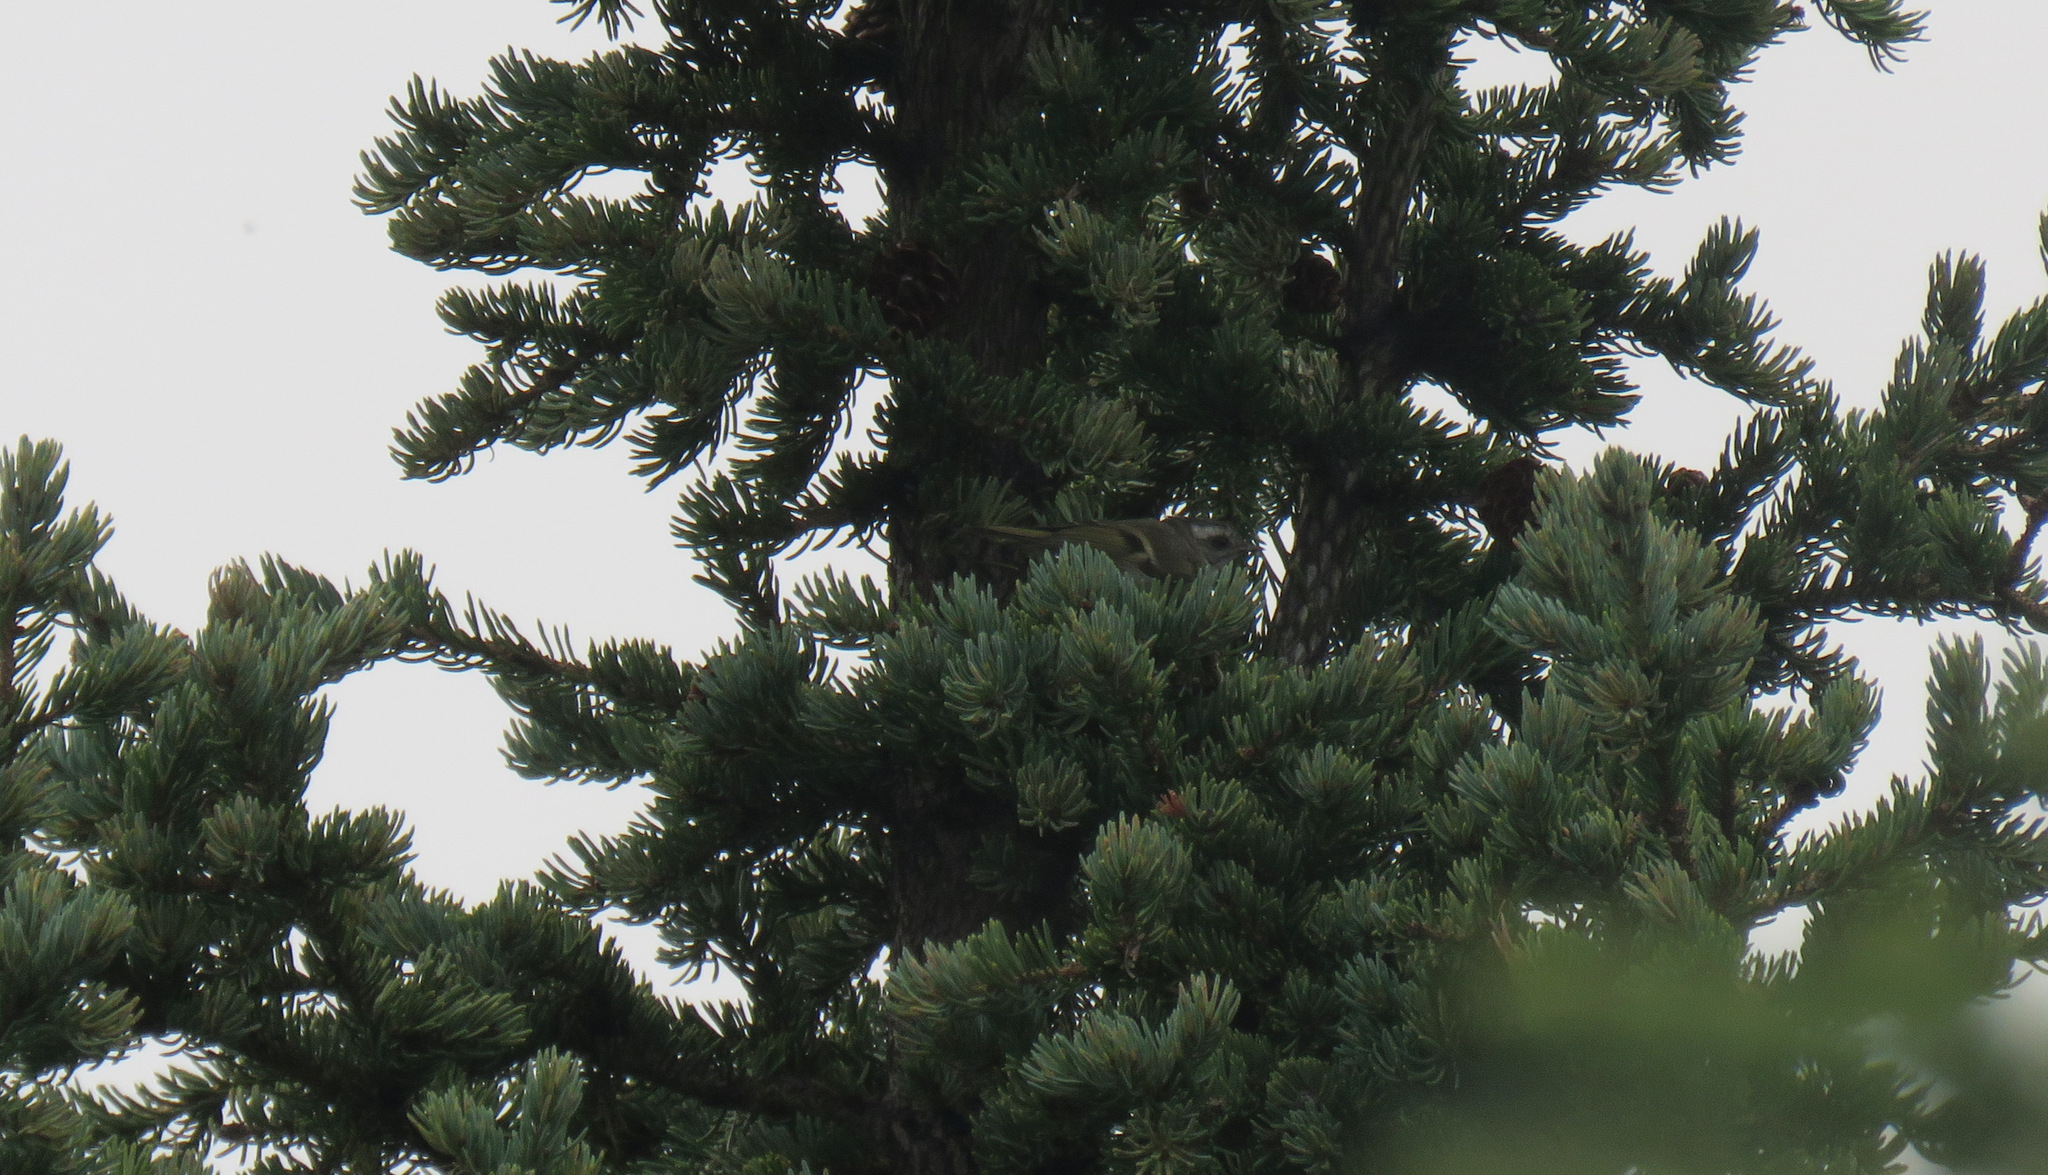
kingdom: Animalia
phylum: Chordata
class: Aves
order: Passeriformes
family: Regulidae
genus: Regulus
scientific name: Regulus satrapa
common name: Golden-crowned kinglet
